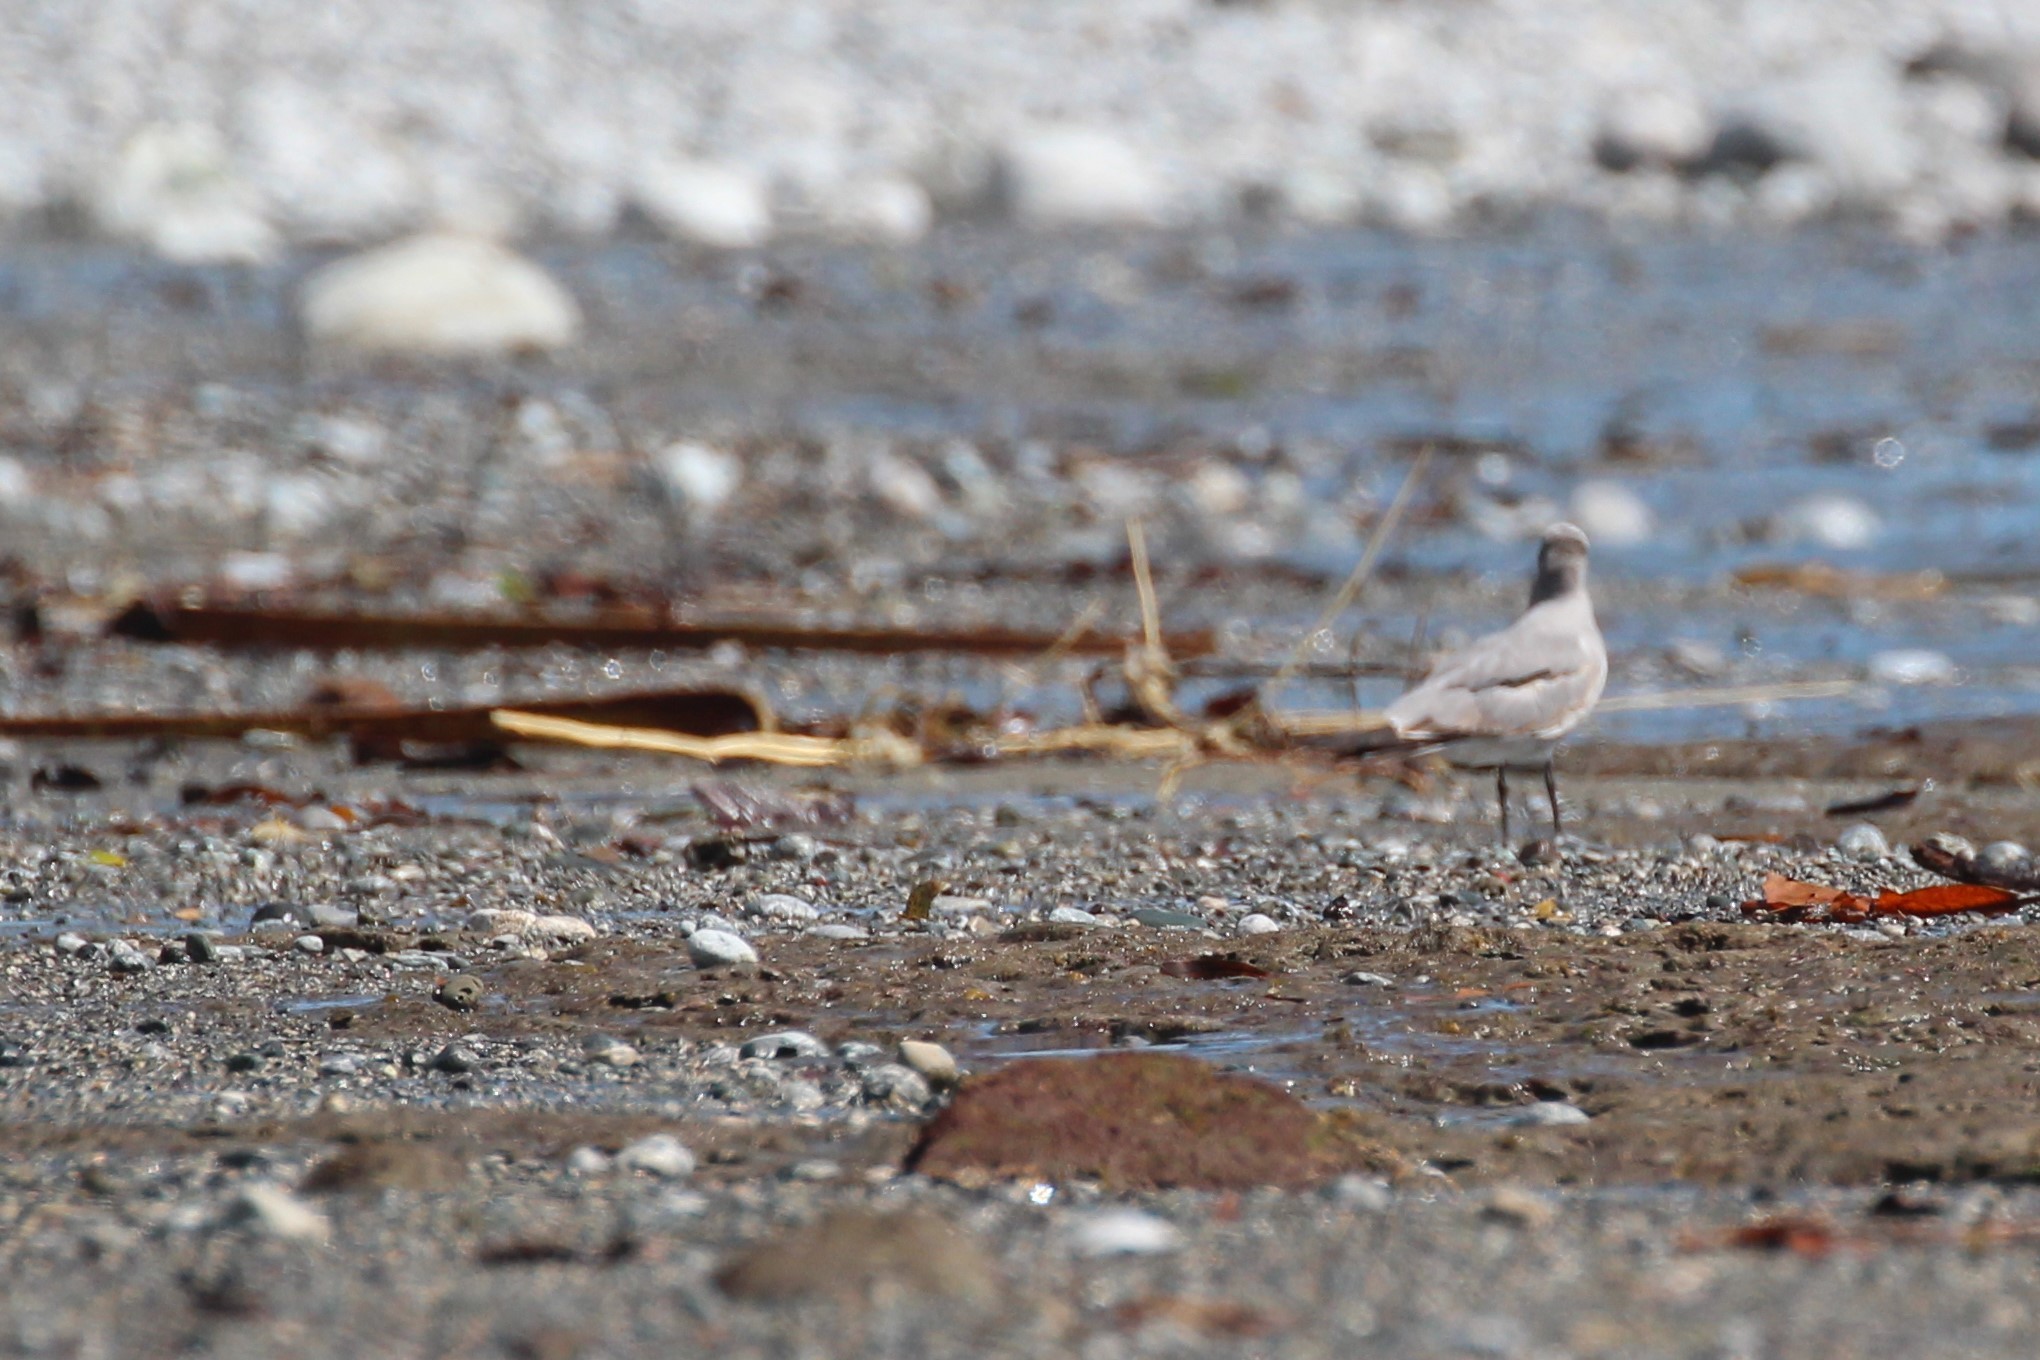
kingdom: Animalia
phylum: Chordata
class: Aves
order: Charadriiformes
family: Laridae
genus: Leucophaeus
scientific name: Leucophaeus atricilla
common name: Laughing gull
